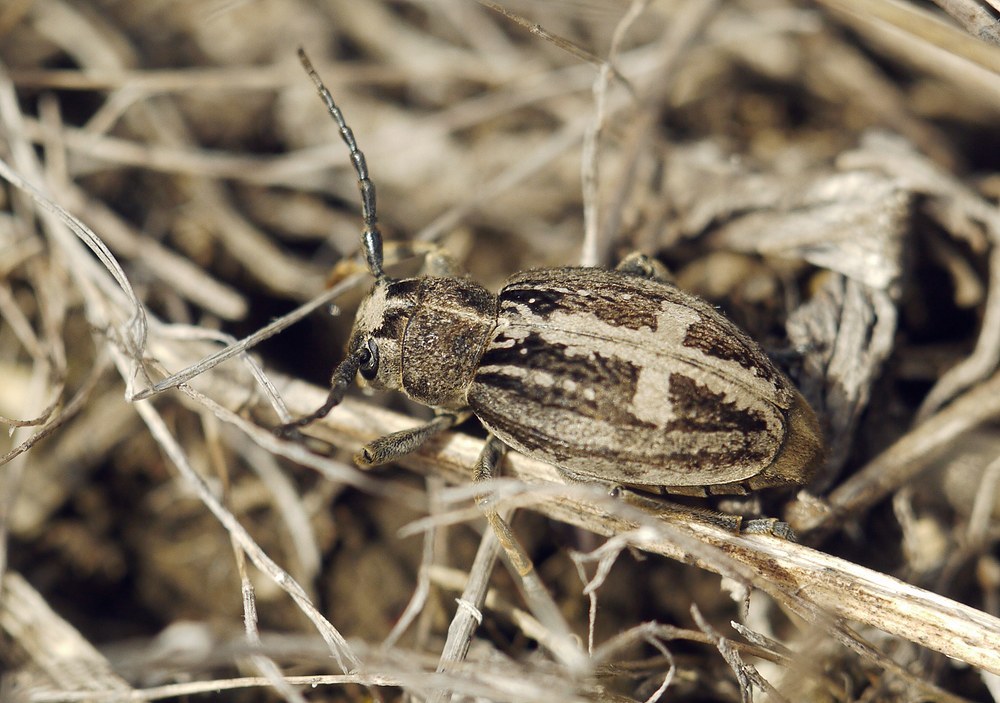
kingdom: Animalia
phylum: Arthropoda
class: Insecta
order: Coleoptera
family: Cerambycidae
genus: Dorcadion
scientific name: Dorcadion equestre
